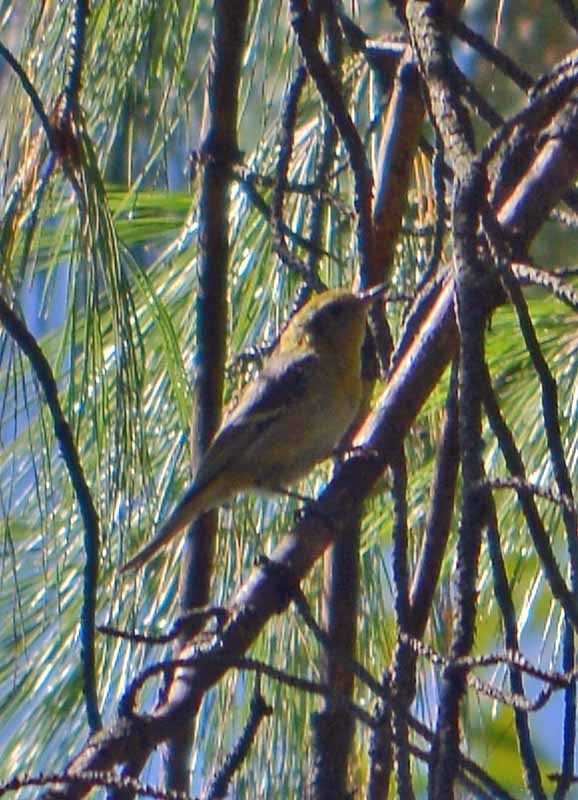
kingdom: Animalia
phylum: Chordata
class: Aves
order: Passeriformes
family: Peucedramidae
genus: Peucedramus
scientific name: Peucedramus taeniatus
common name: Olive warbler
